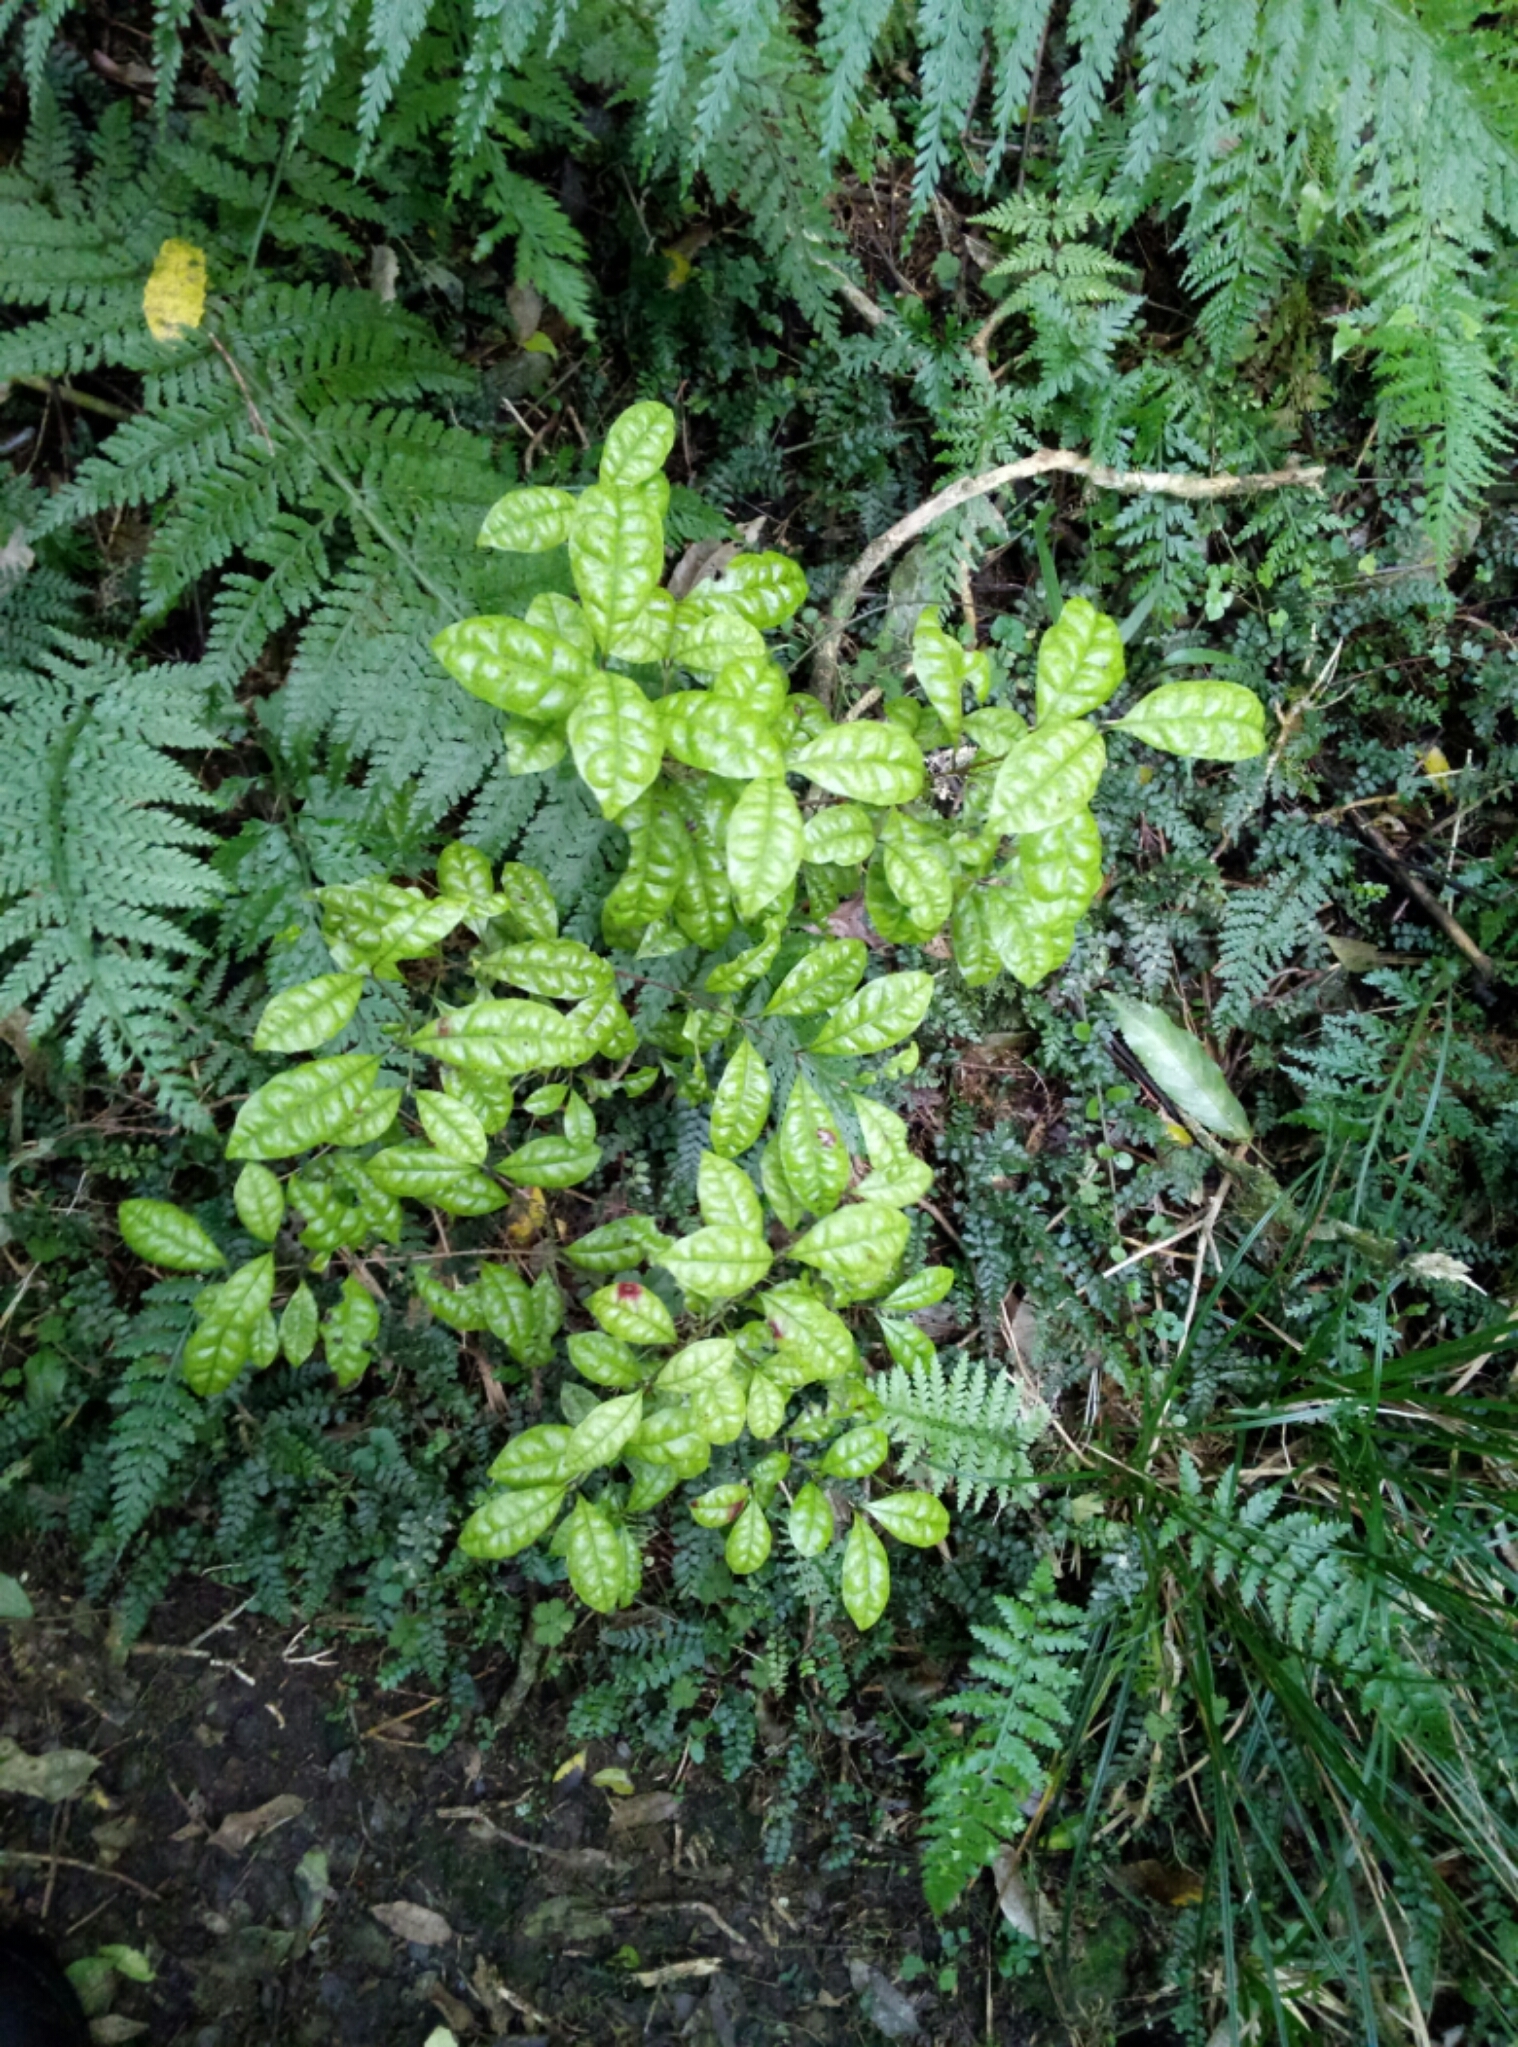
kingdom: Plantae
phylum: Tracheophyta
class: Magnoliopsida
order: Myrtales
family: Myrtaceae
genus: Lophomyrtus
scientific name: Lophomyrtus bullata
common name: Rama rama
